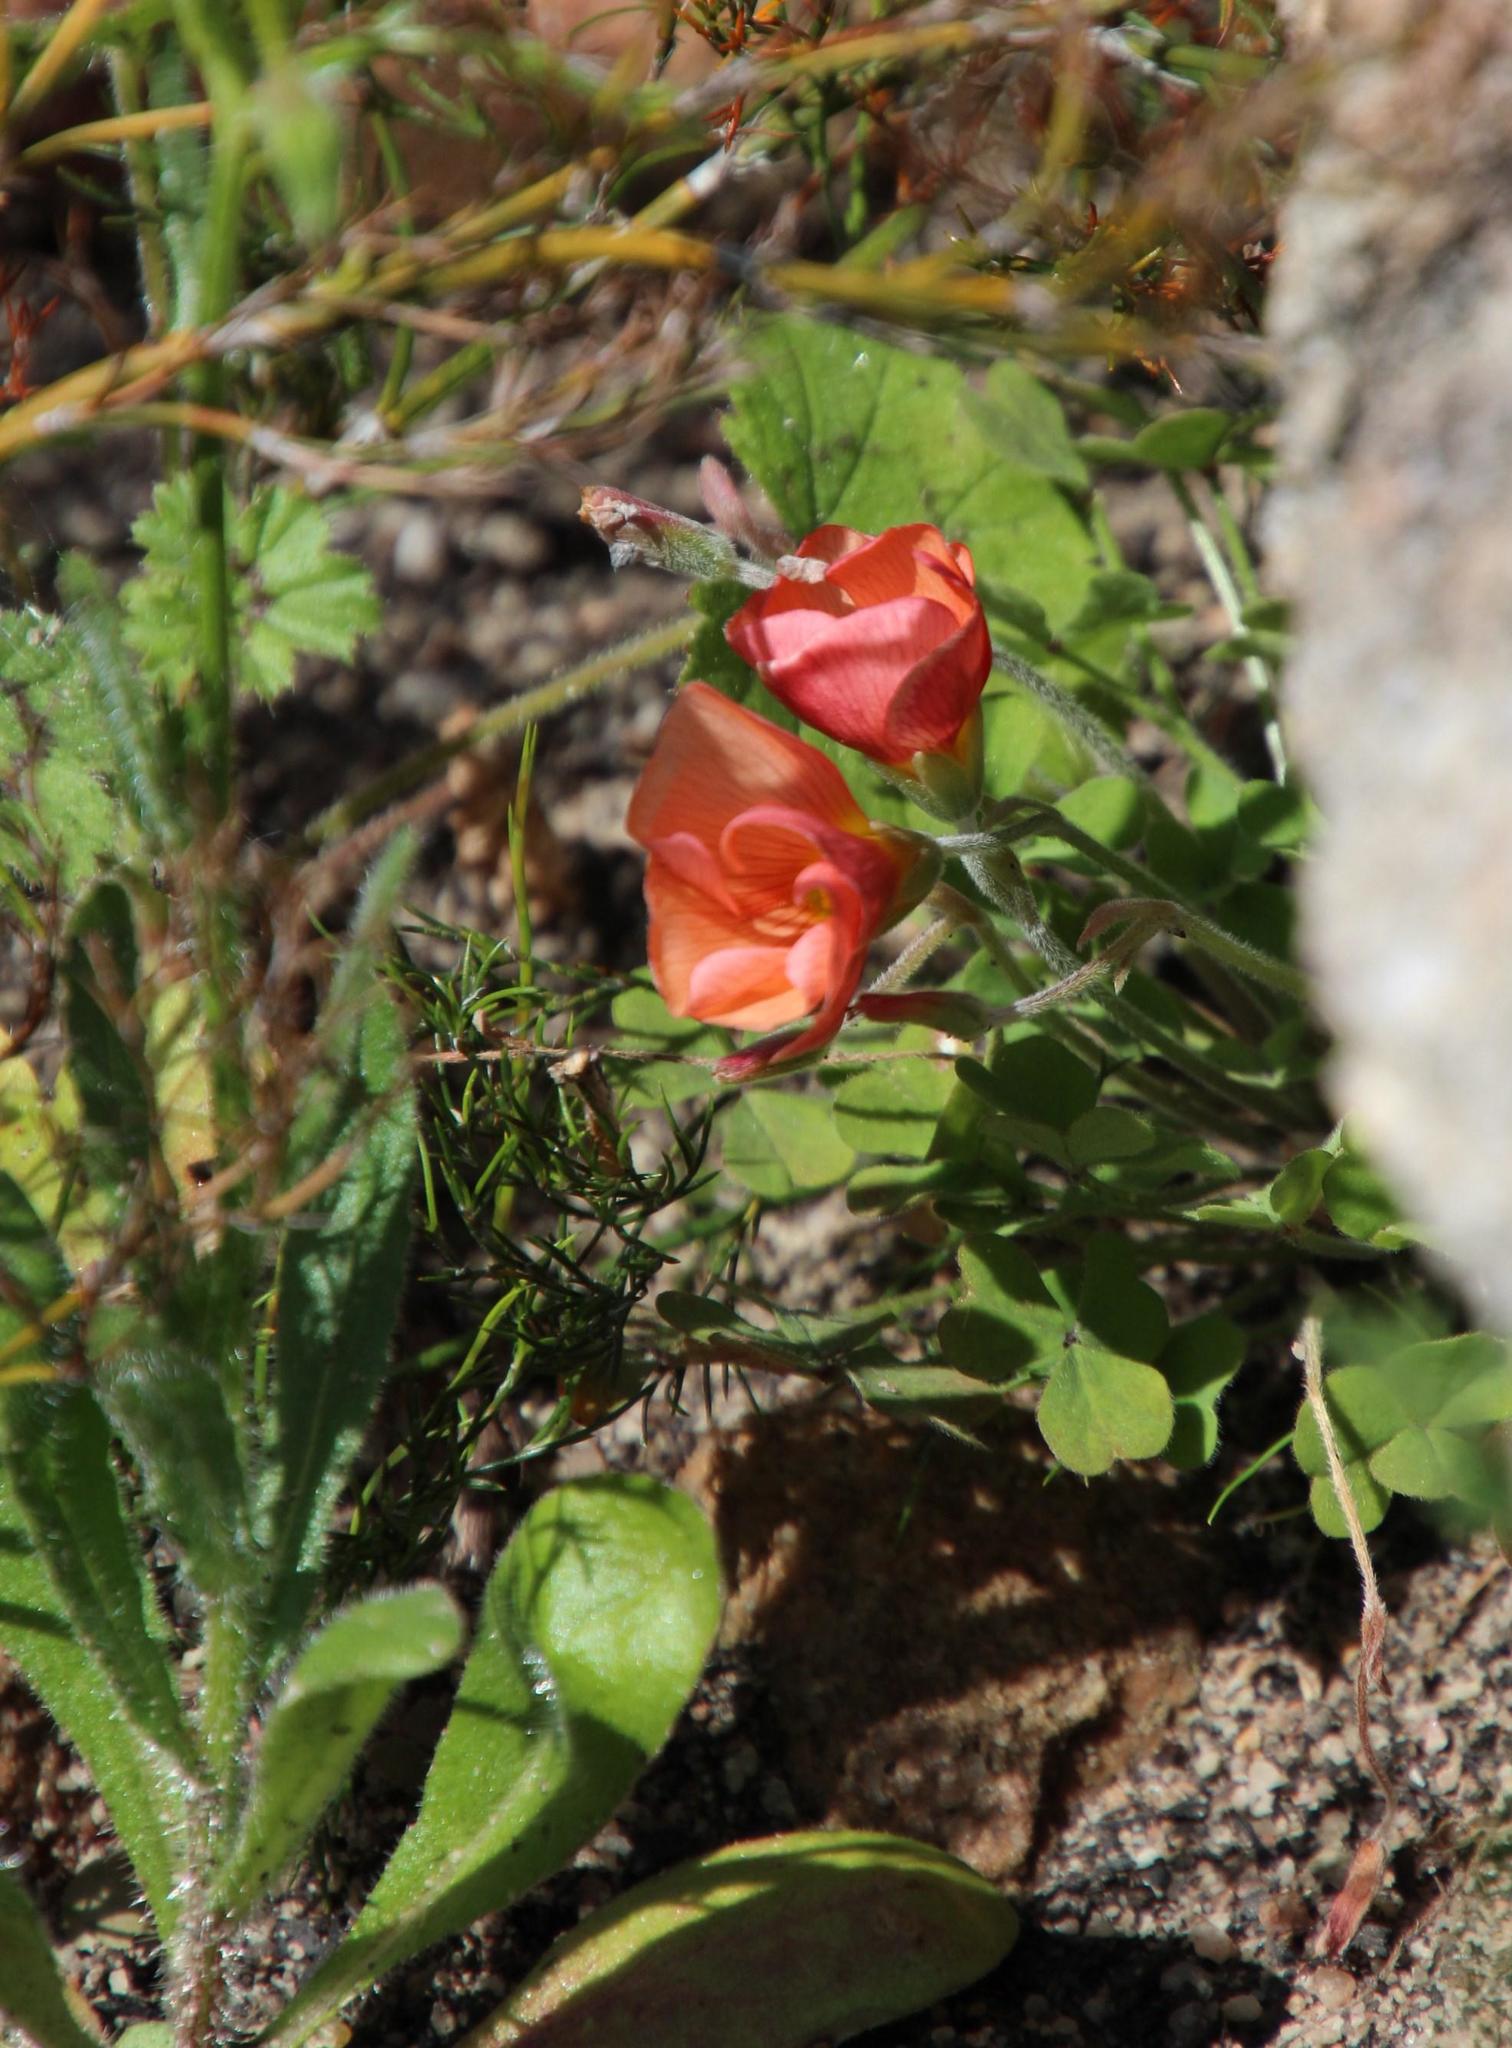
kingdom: Plantae
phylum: Tracheophyta
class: Magnoliopsida
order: Oxalidales
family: Oxalidaceae
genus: Oxalis
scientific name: Oxalis obtusa
